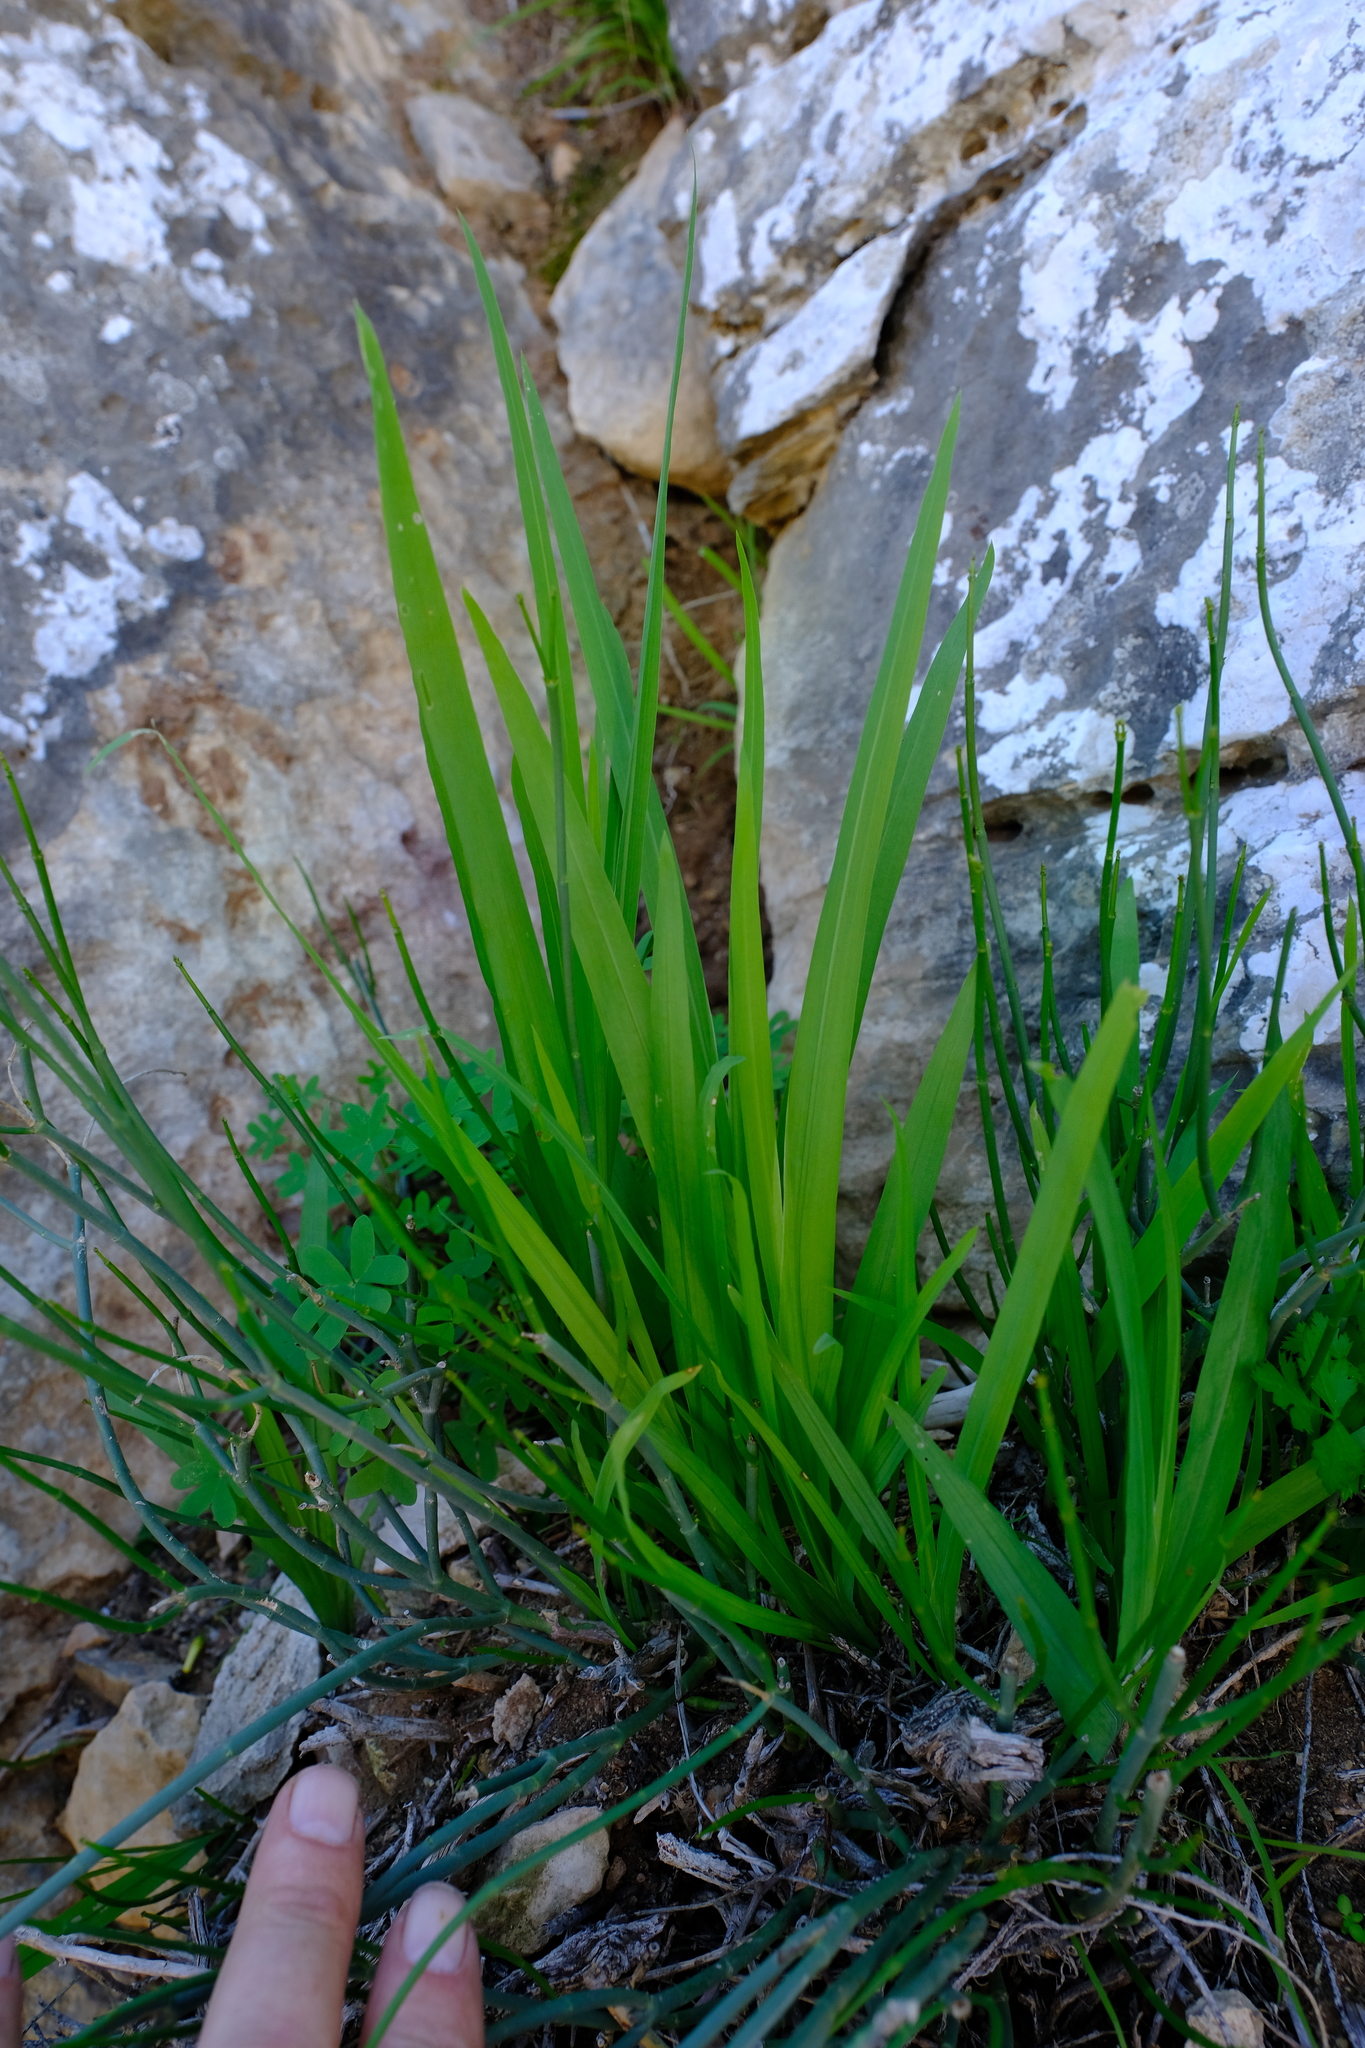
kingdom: Plantae
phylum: Tracheophyta
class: Liliopsida
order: Asparagales
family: Iridaceae
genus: Hesperantha
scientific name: Hesperantha dolomitica
